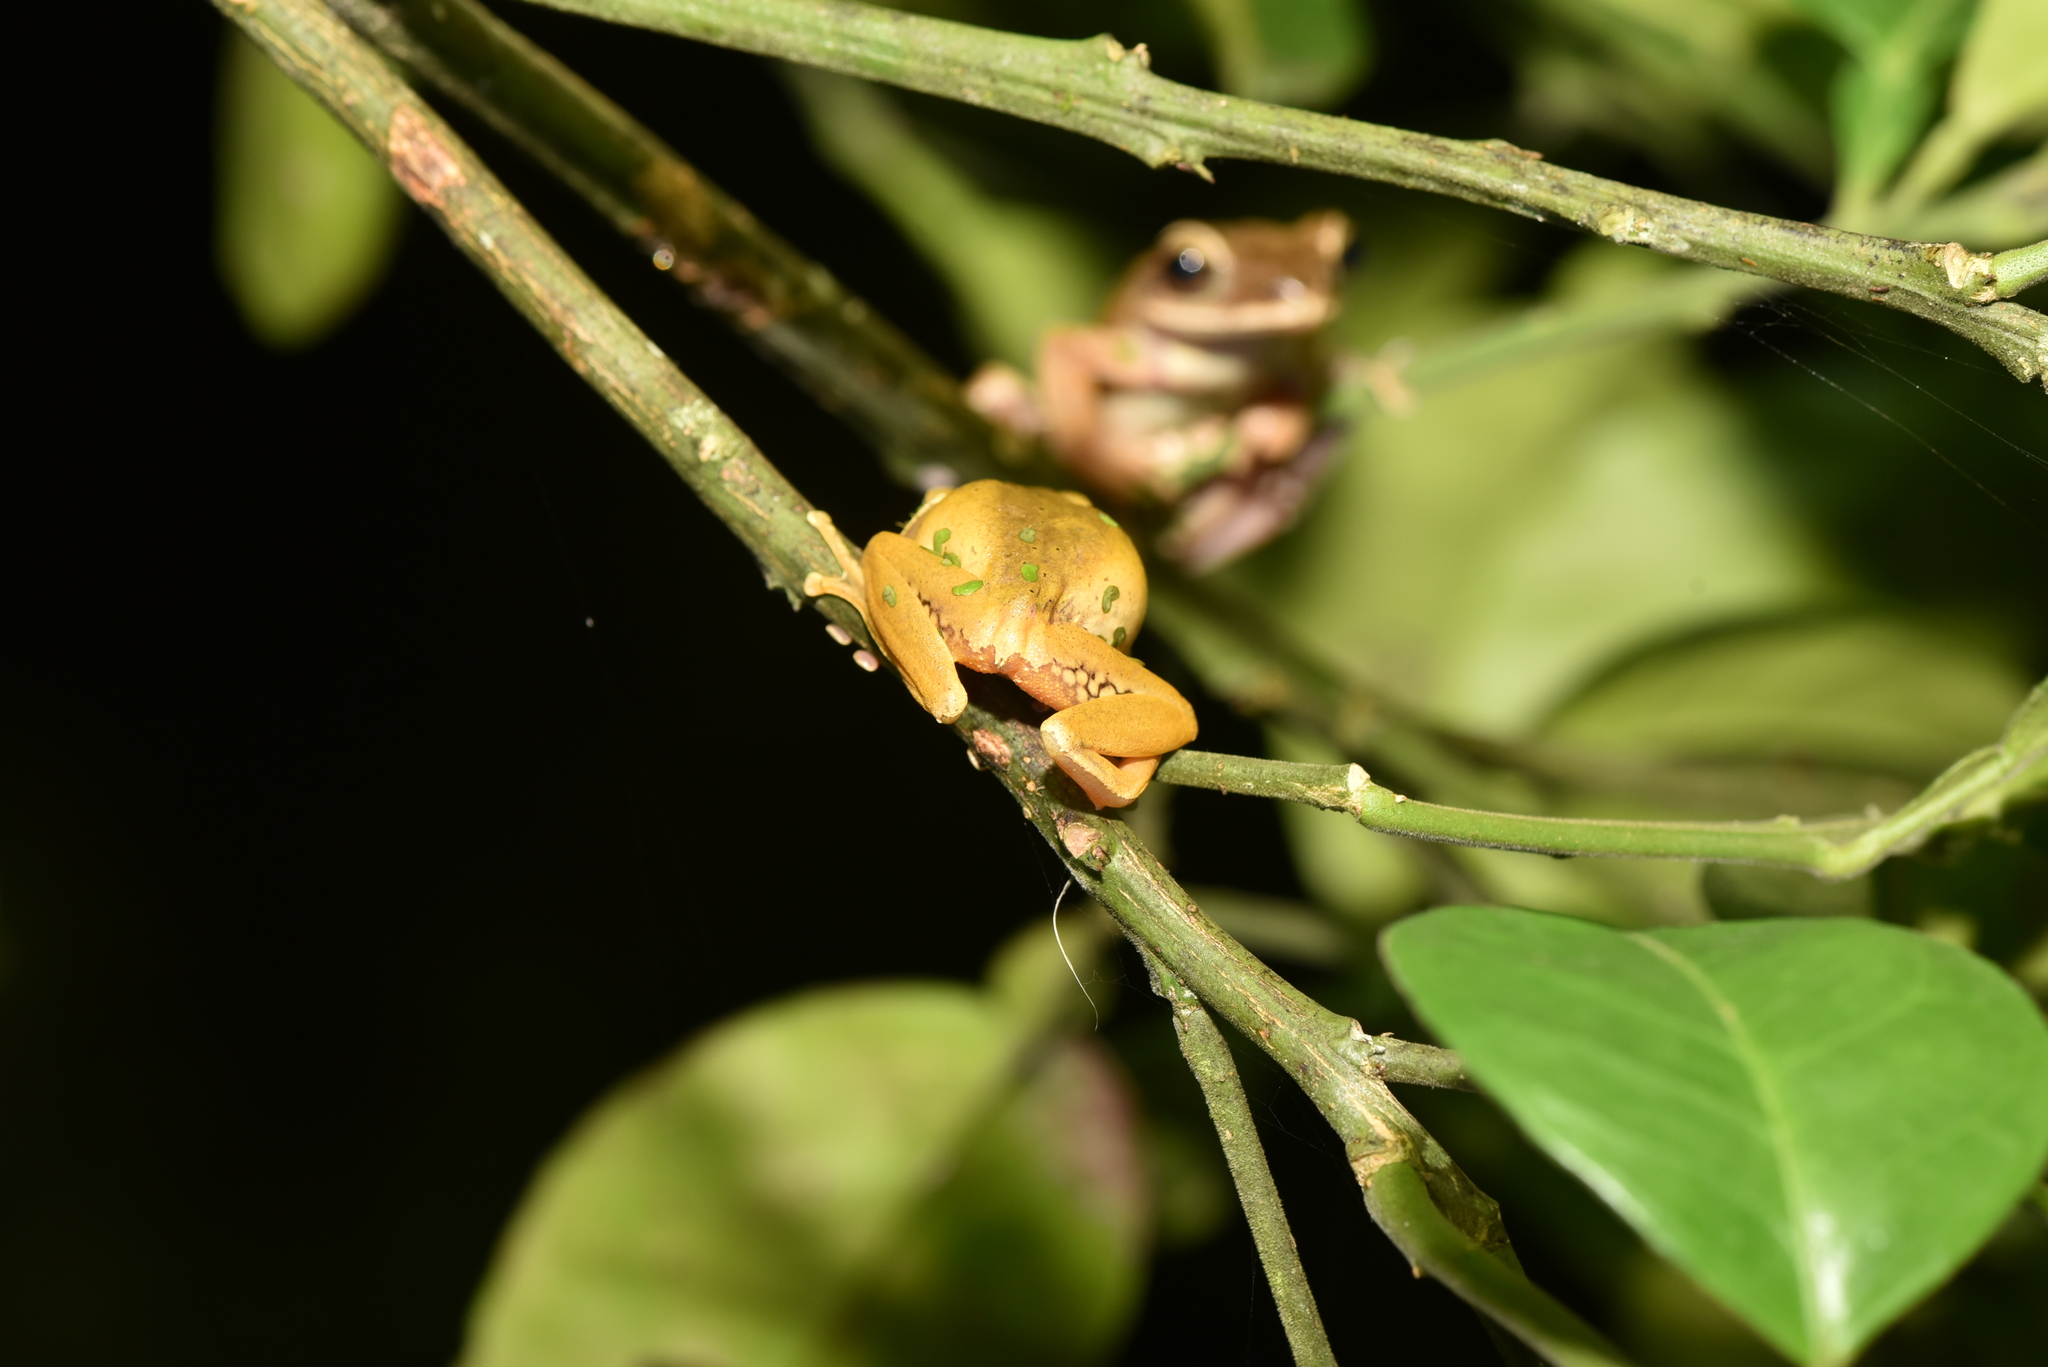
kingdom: Animalia
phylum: Chordata
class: Amphibia
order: Anura
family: Rhacophoridae
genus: Polypedates
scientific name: Polypedates braueri
